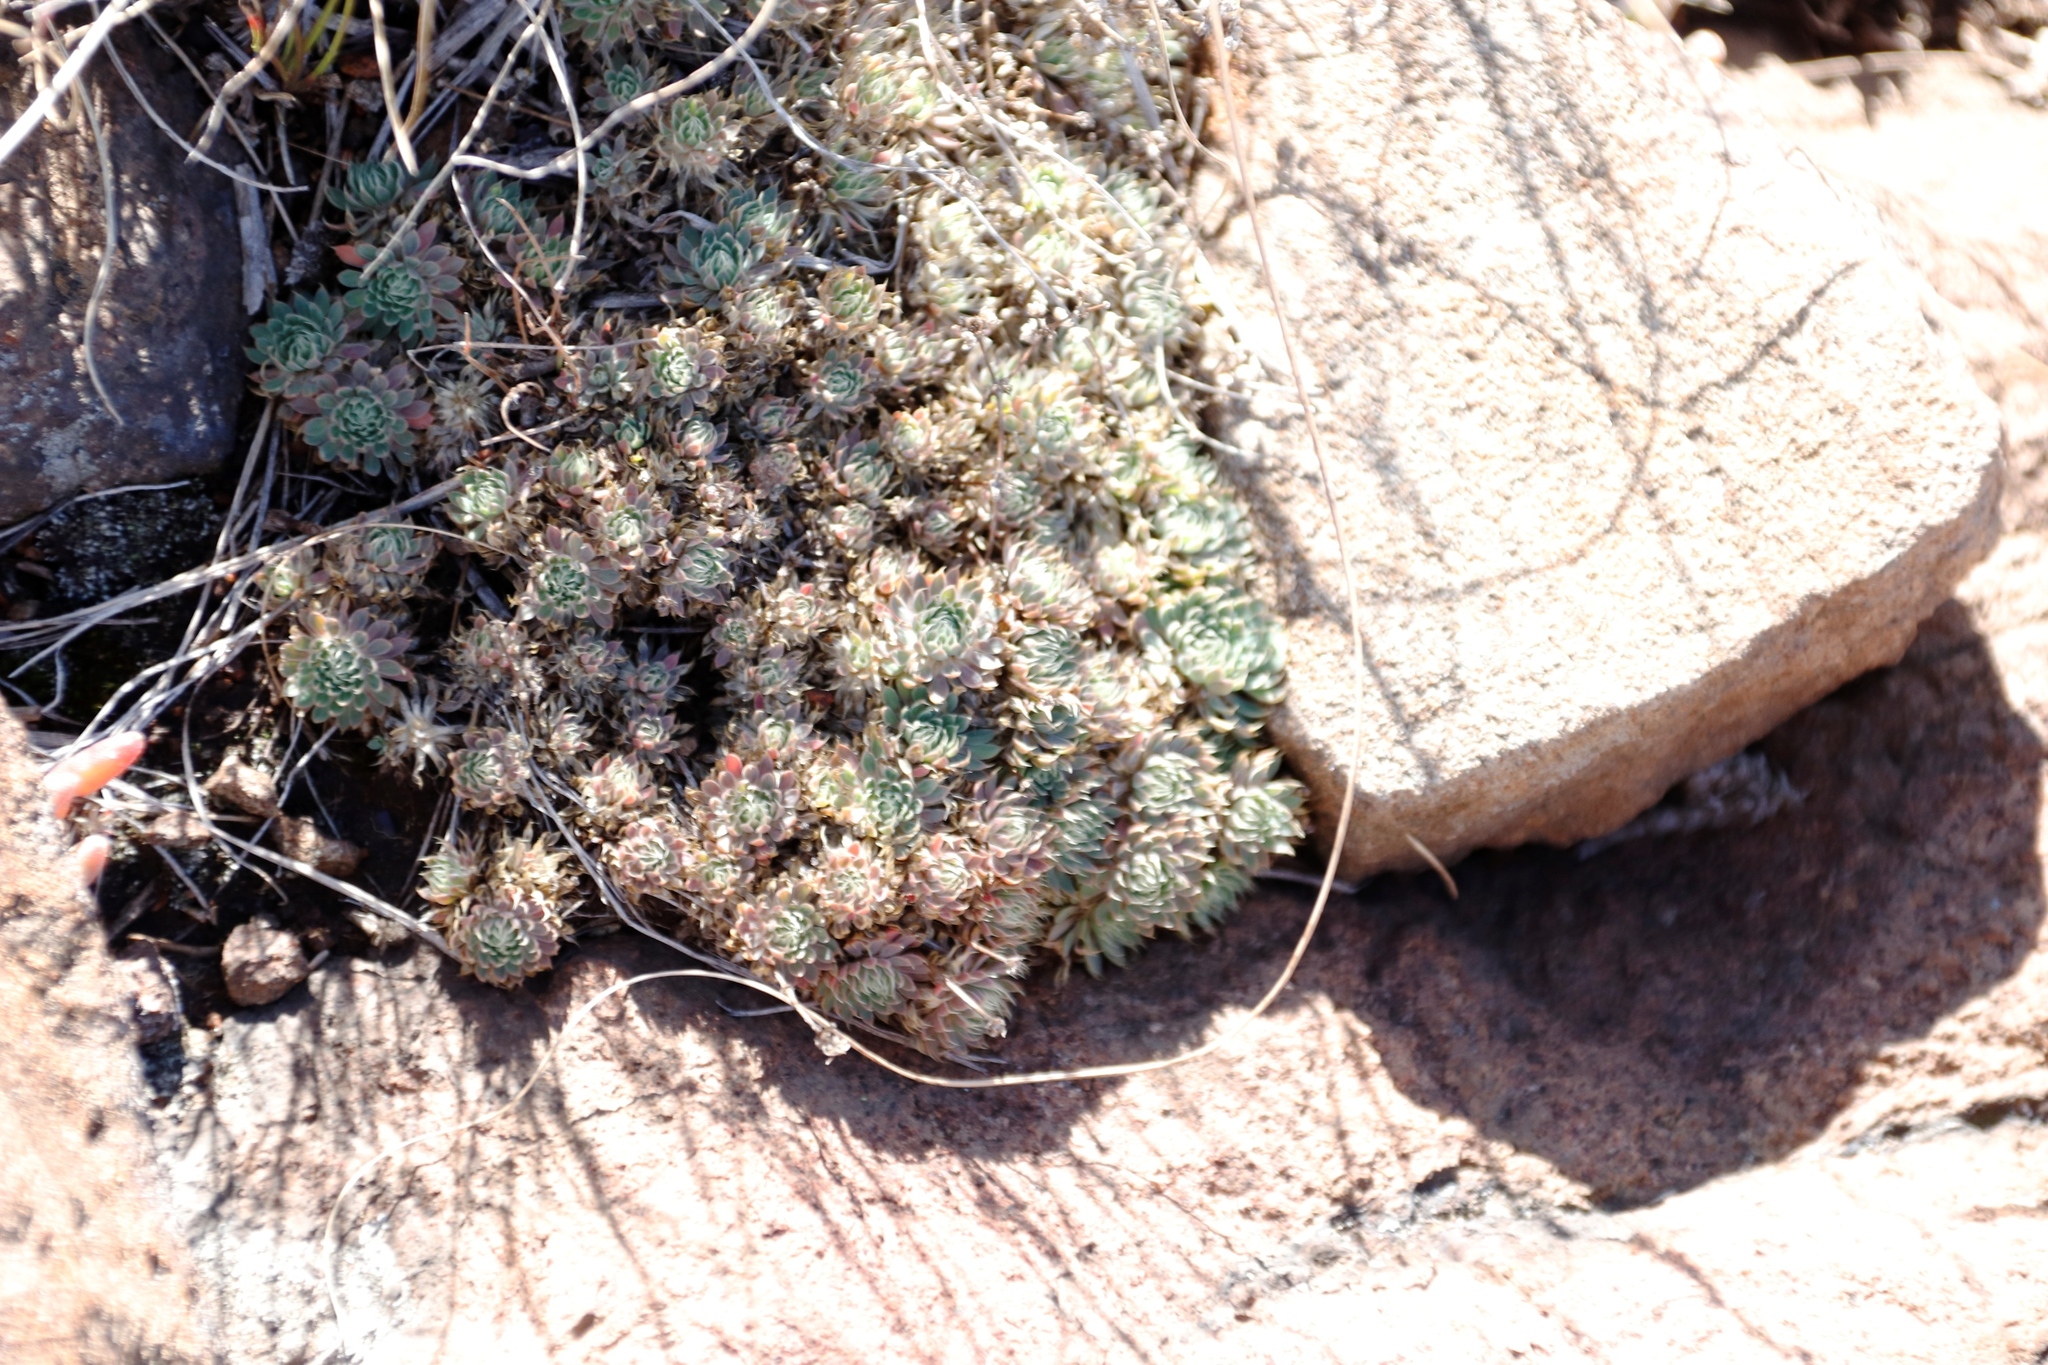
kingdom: Plantae
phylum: Tracheophyta
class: Magnoliopsida
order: Caryophyllales
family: Molluginaceae
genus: Psammotropha
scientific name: Psammotropha mucronata
